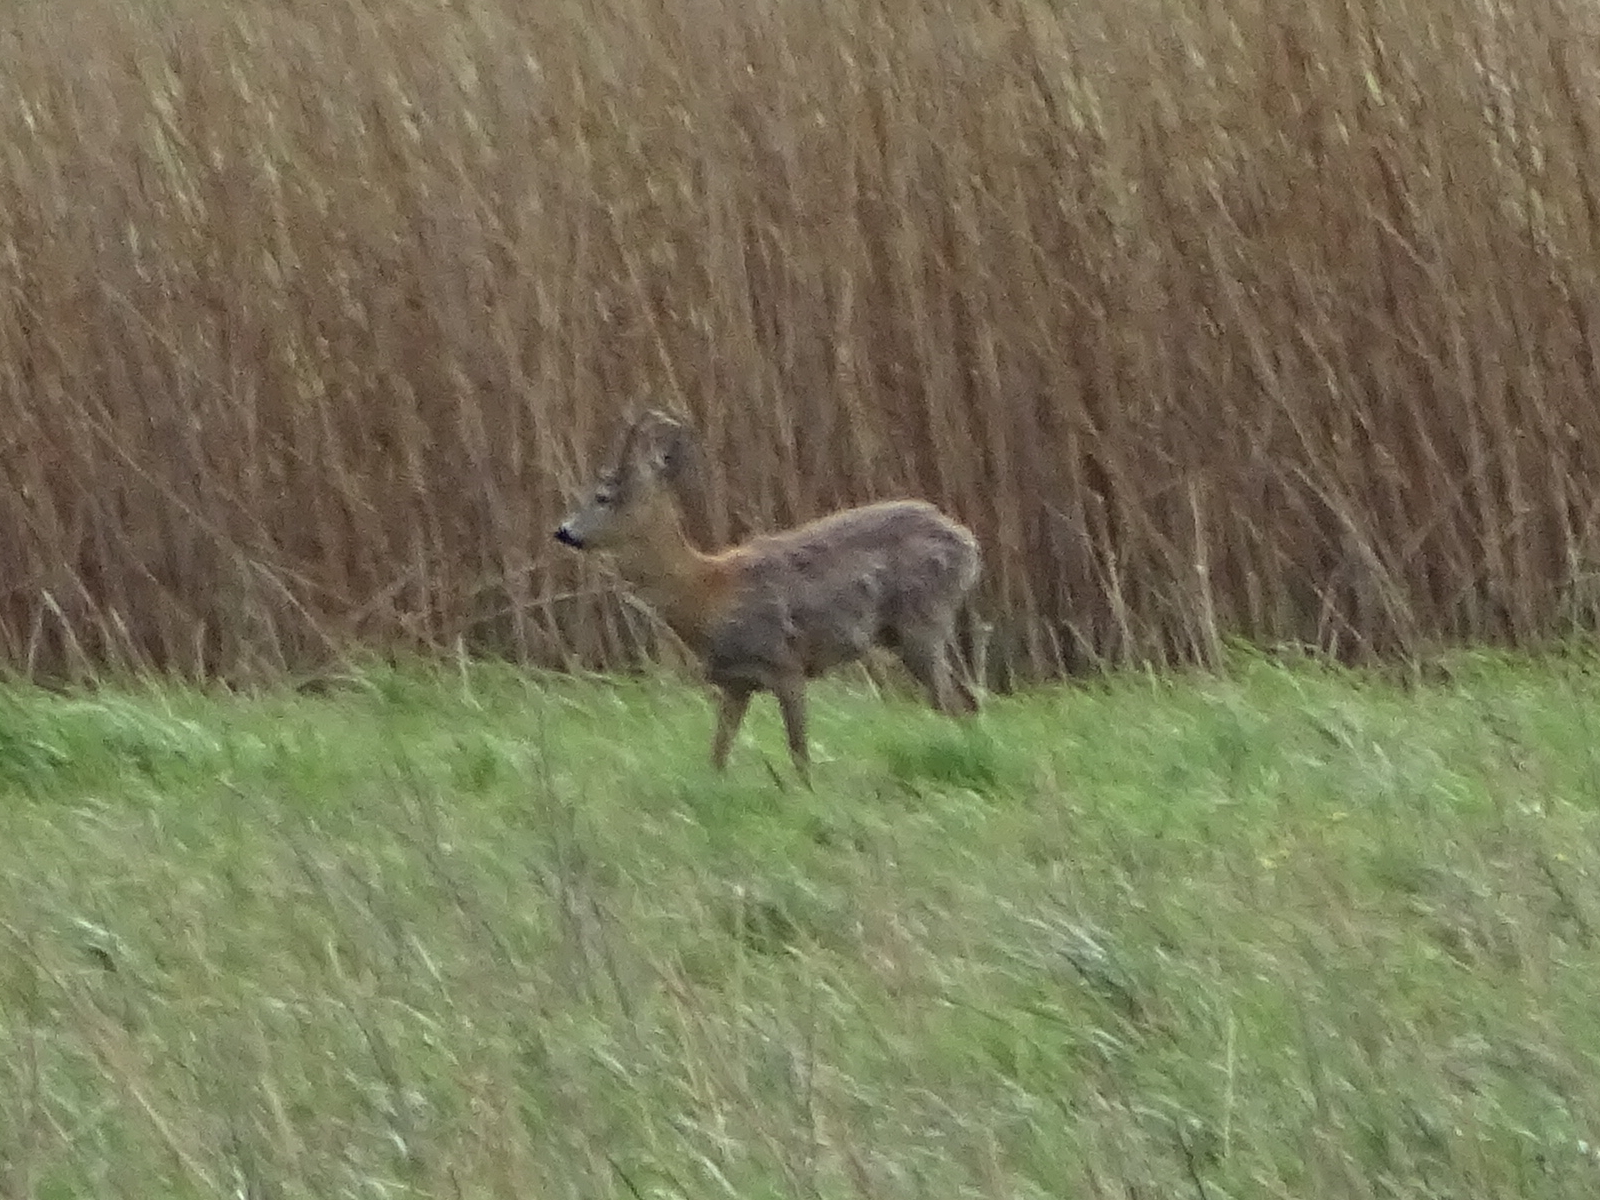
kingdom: Animalia
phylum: Chordata
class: Mammalia
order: Artiodactyla
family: Cervidae
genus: Capreolus
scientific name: Capreolus capreolus
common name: Western roe deer
